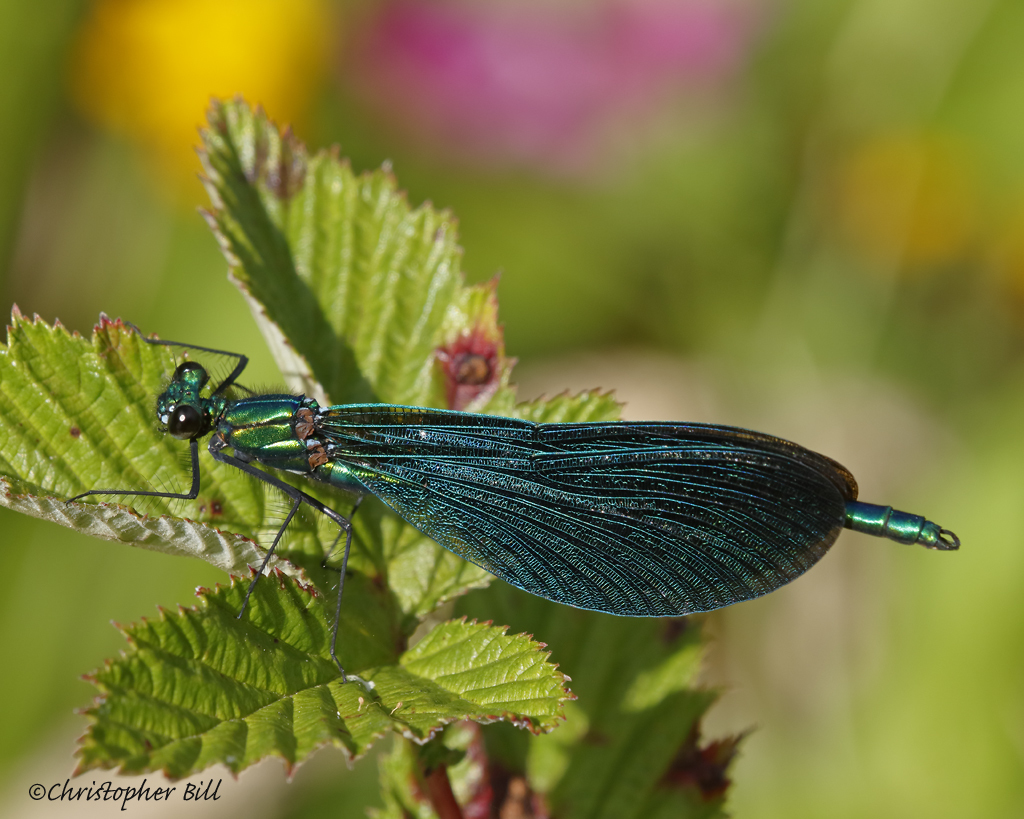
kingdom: Animalia
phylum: Arthropoda
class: Insecta
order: Odonata
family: Calopterygidae
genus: Calopteryx
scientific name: Calopteryx virgo
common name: Beautiful demoiselle
